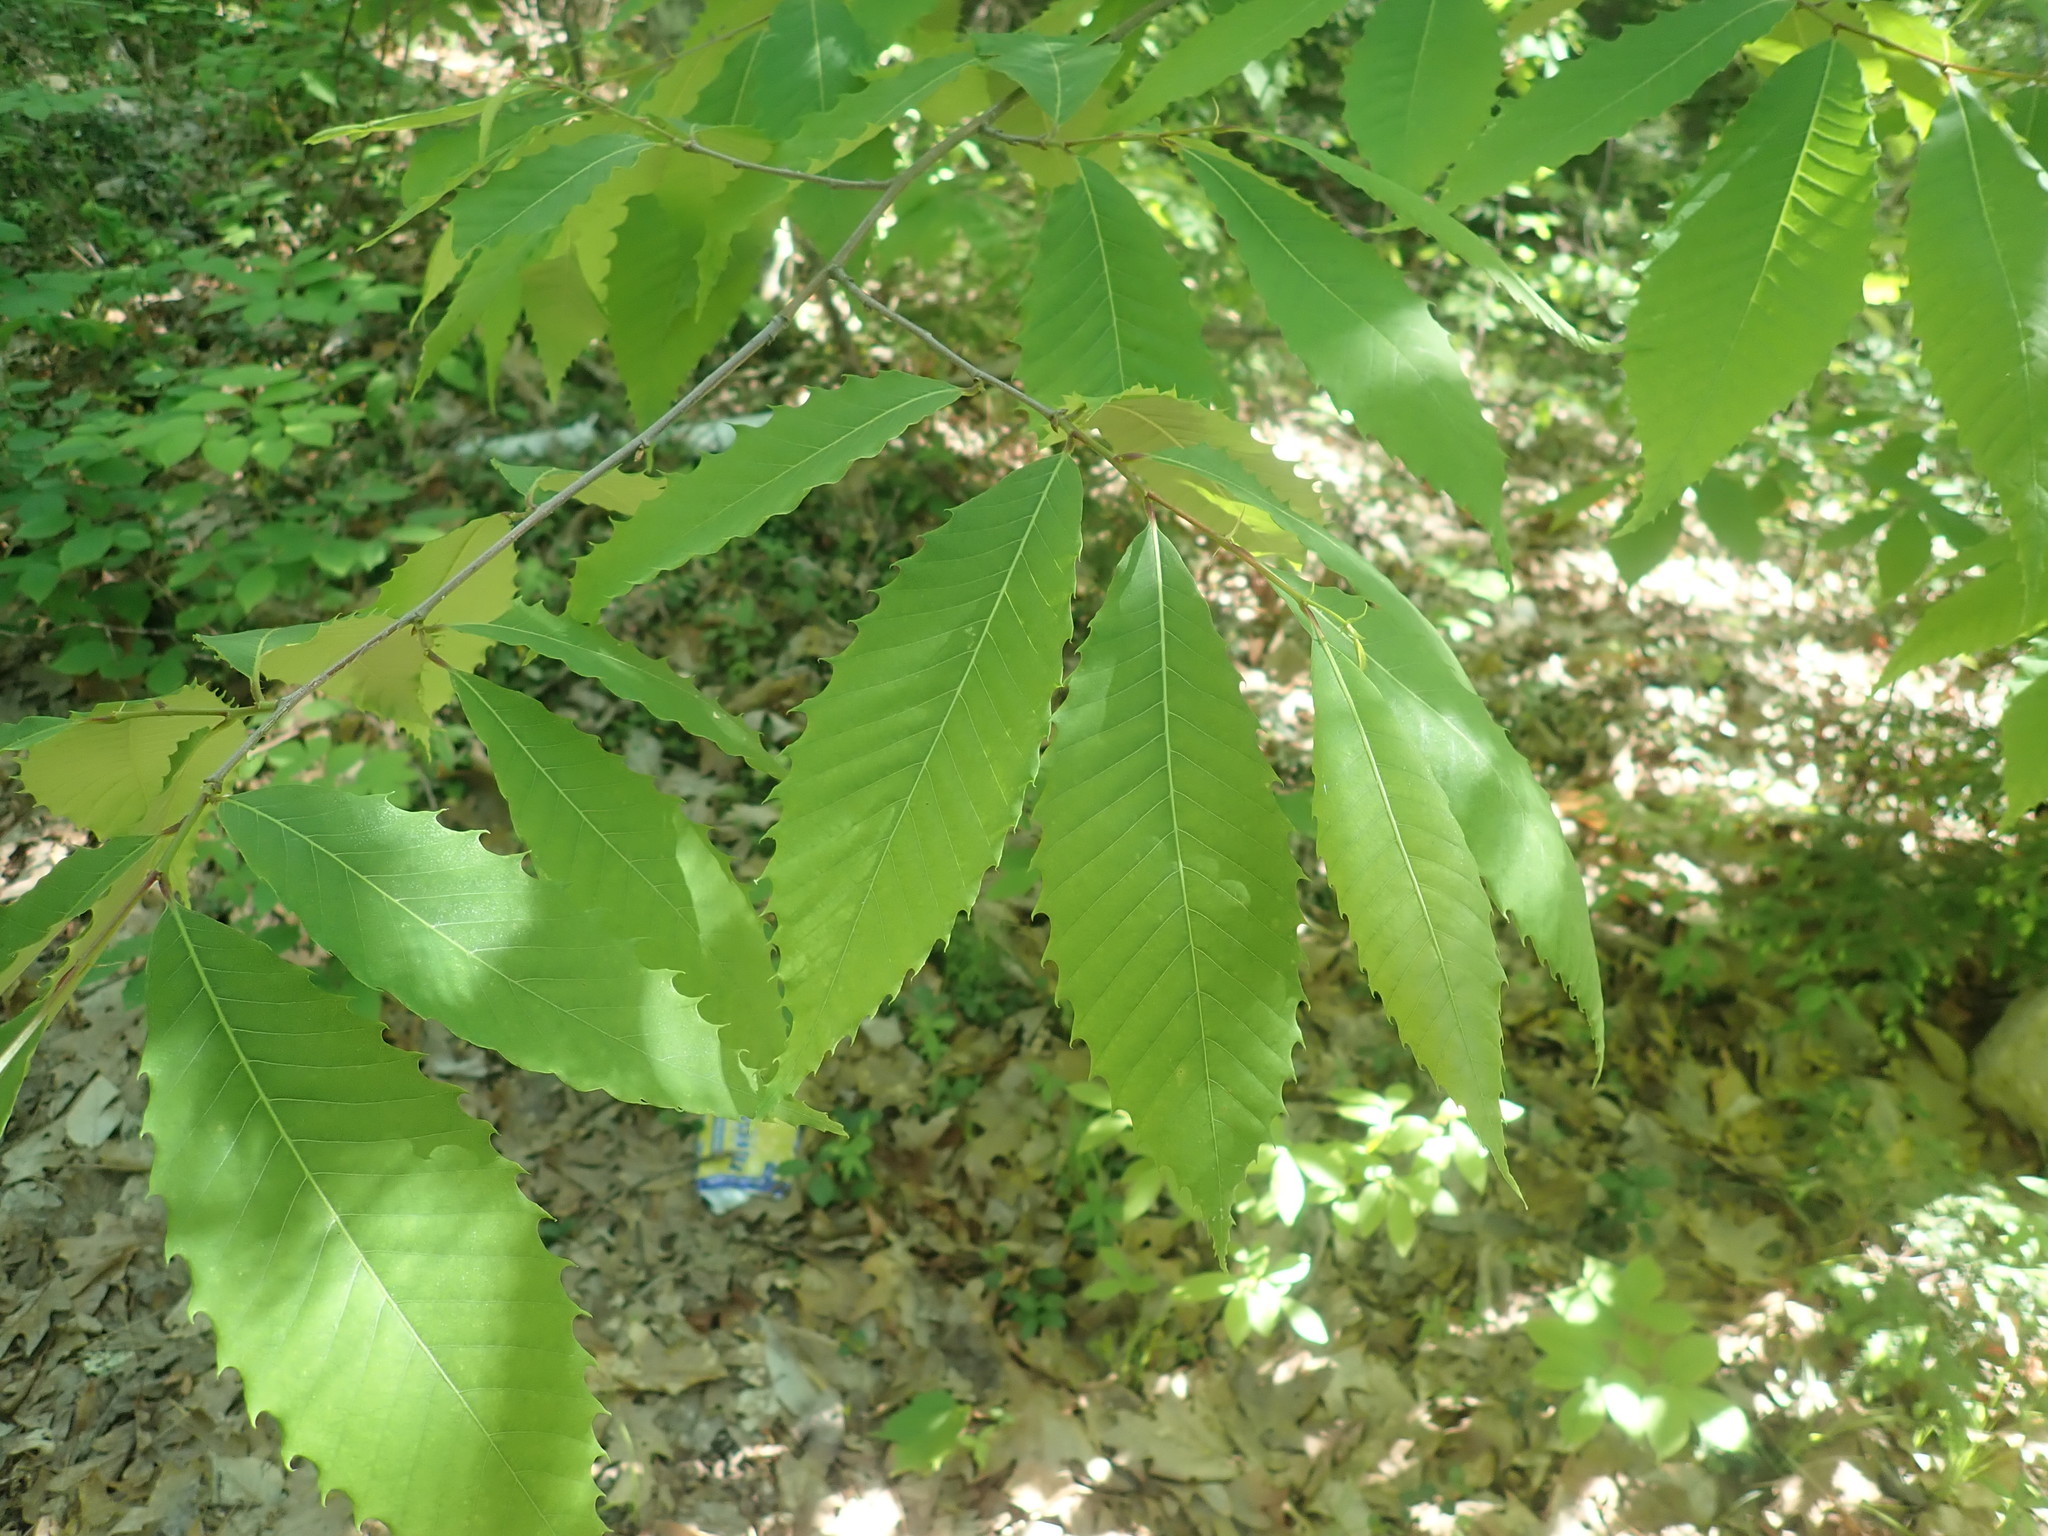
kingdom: Plantae
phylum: Tracheophyta
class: Magnoliopsida
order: Fagales
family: Fagaceae
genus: Castanea
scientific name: Castanea dentata
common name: American chestnut
